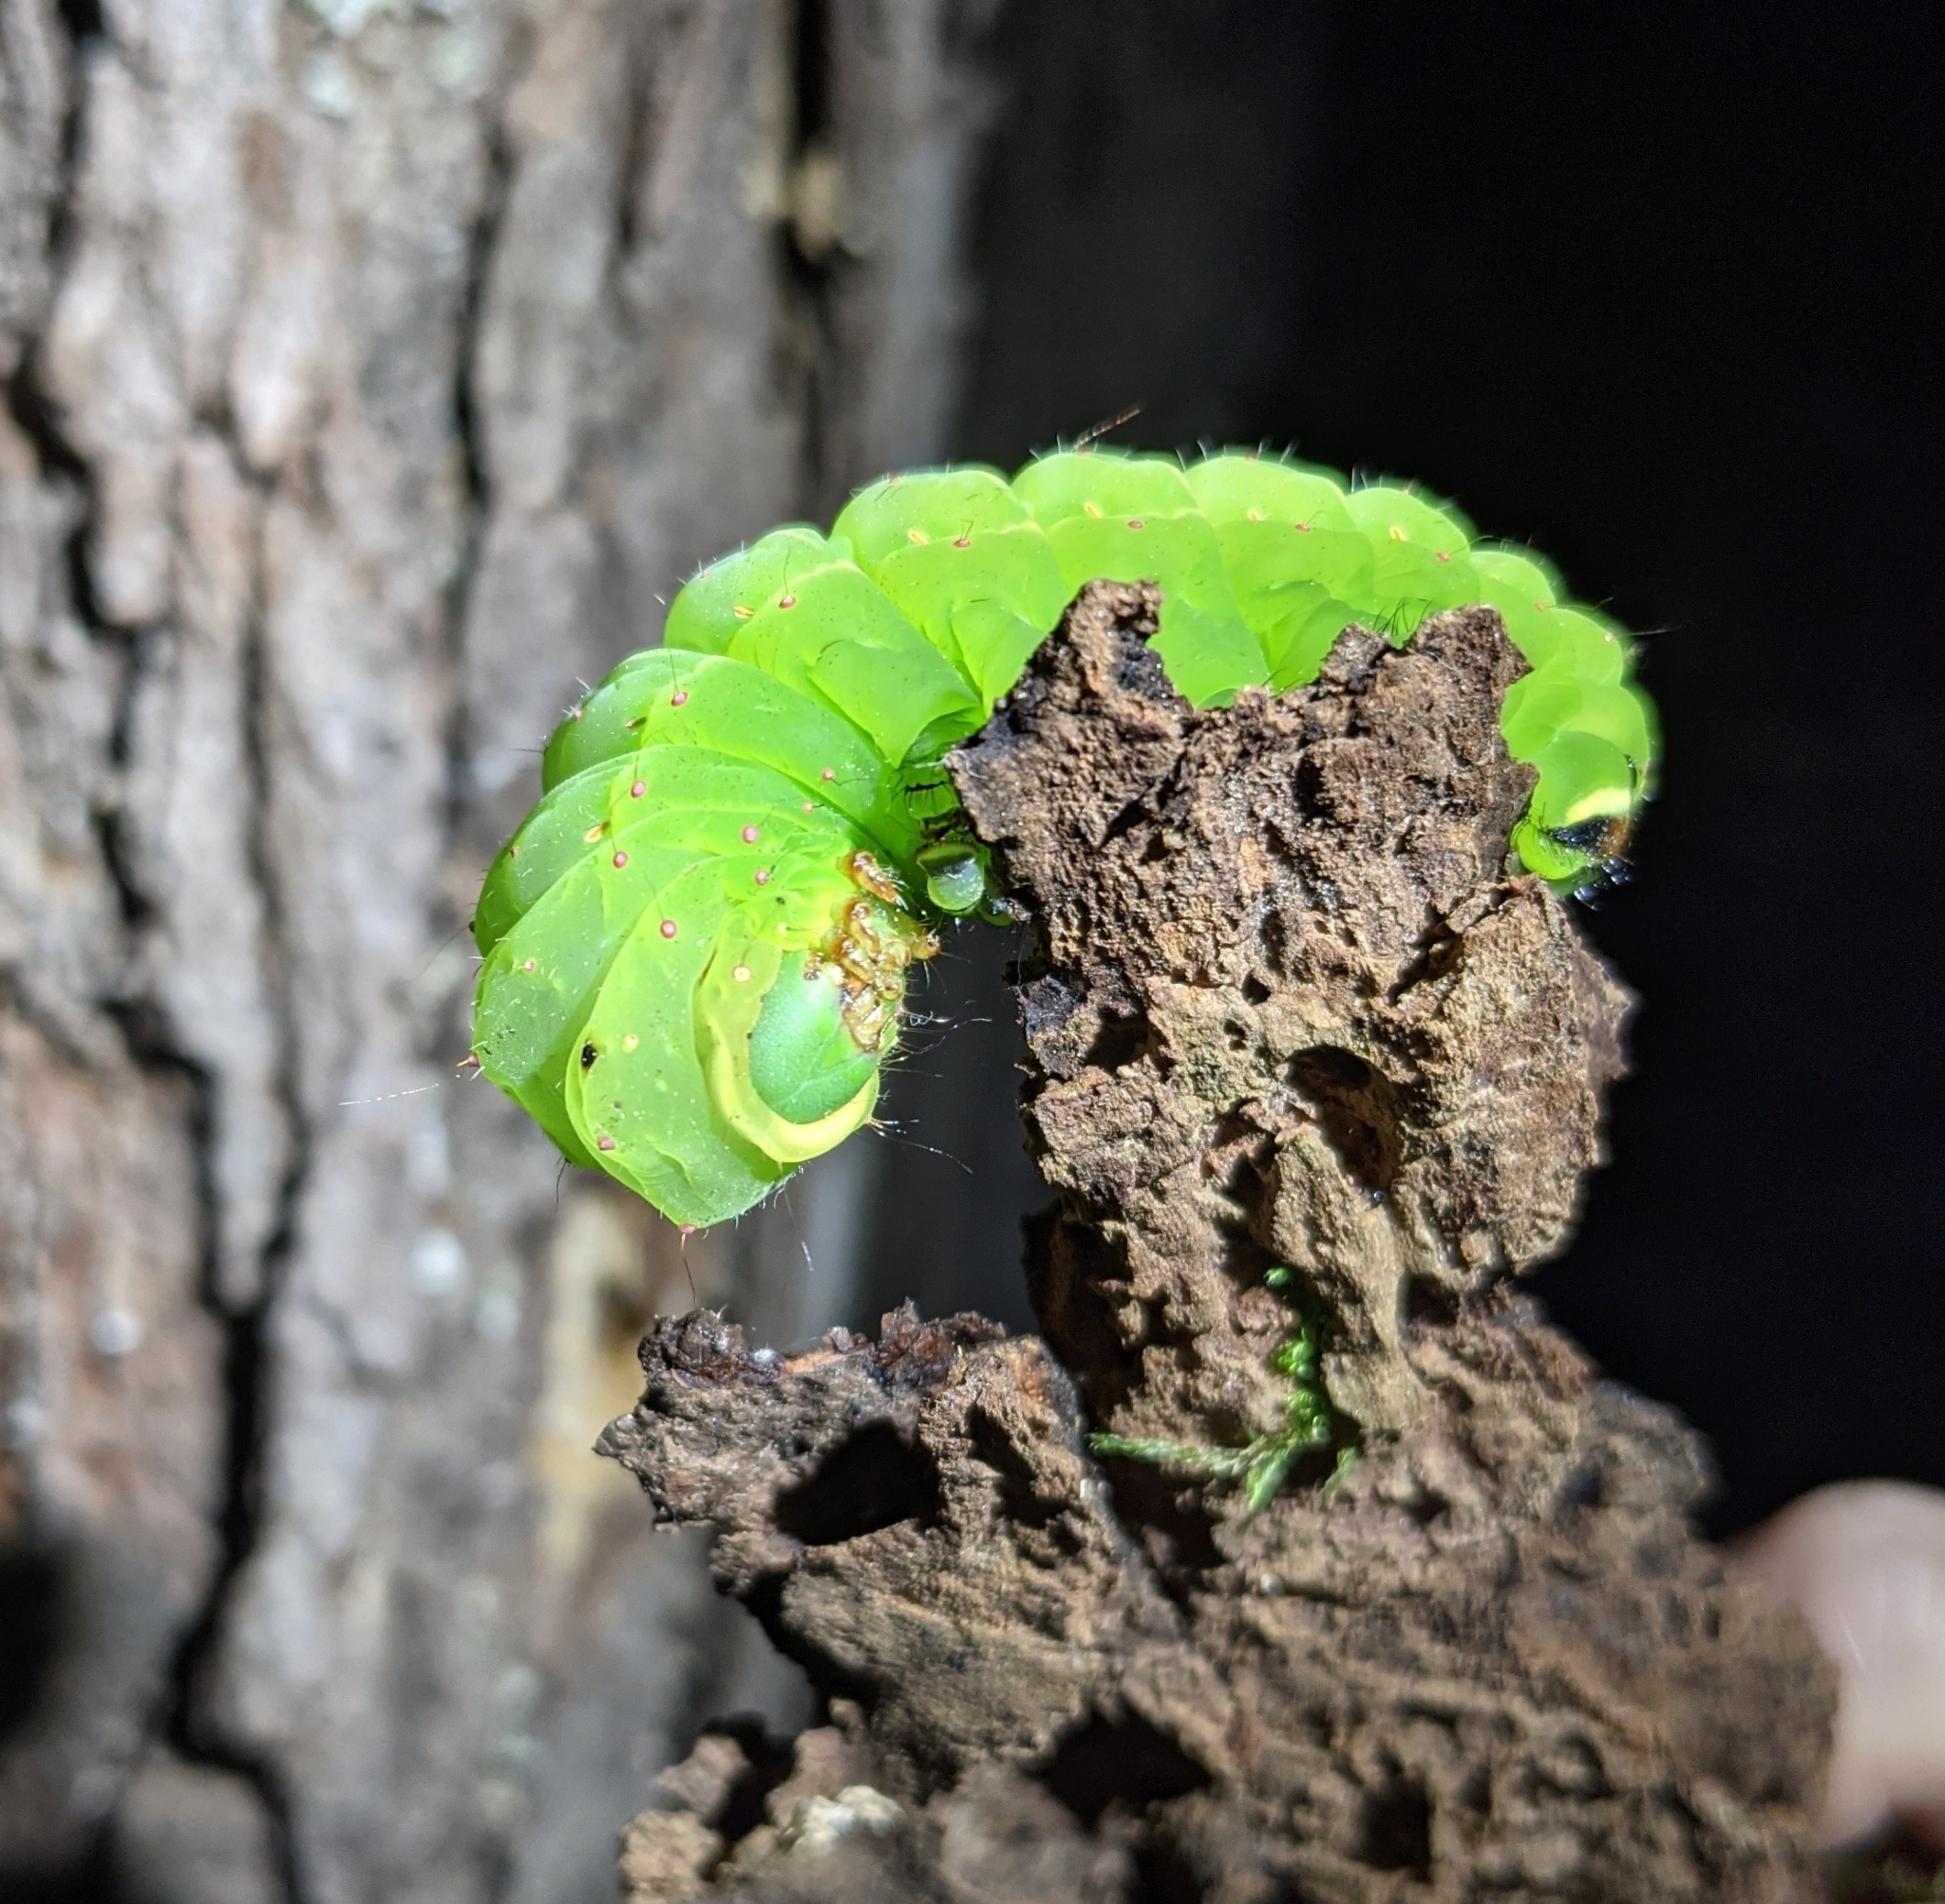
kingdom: Animalia
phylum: Arthropoda
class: Insecta
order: Lepidoptera
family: Saturniidae
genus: Actias
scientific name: Actias luna
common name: Luna moth
